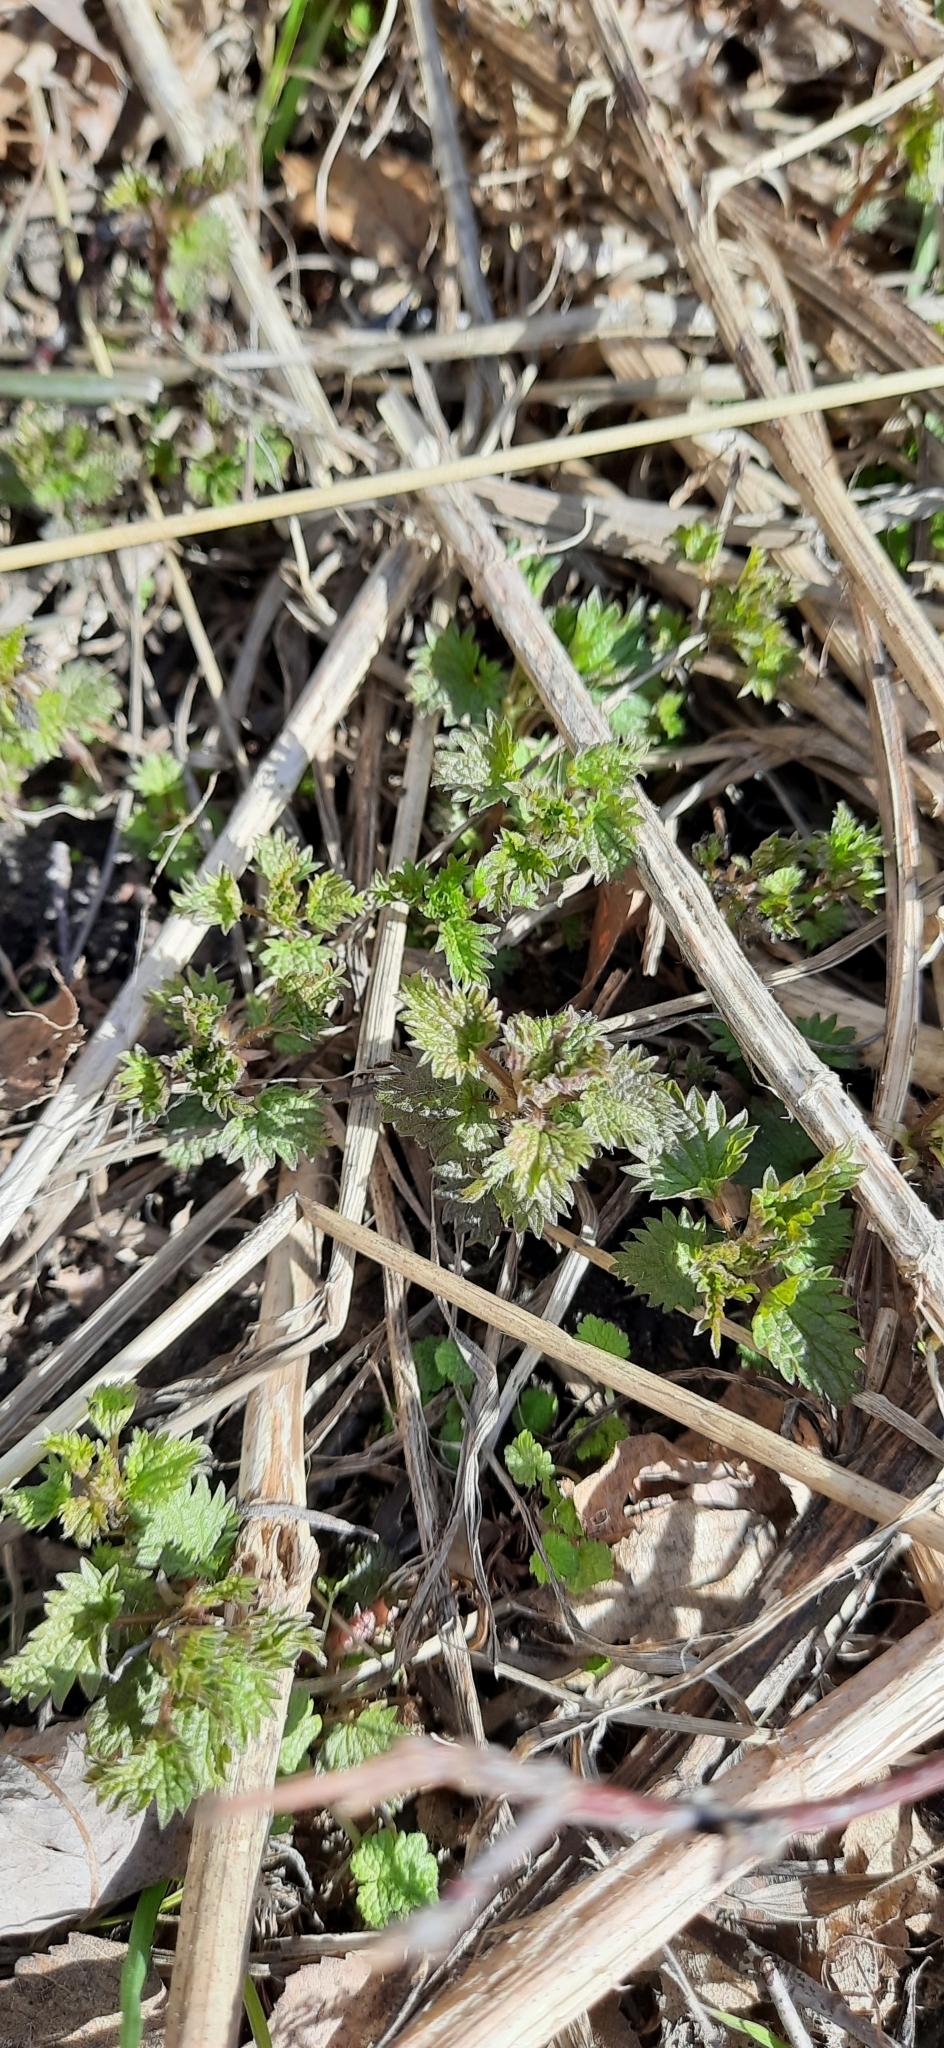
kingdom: Plantae
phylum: Tracheophyta
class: Magnoliopsida
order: Rosales
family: Urticaceae
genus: Urtica
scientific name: Urtica dioica
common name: Common nettle
